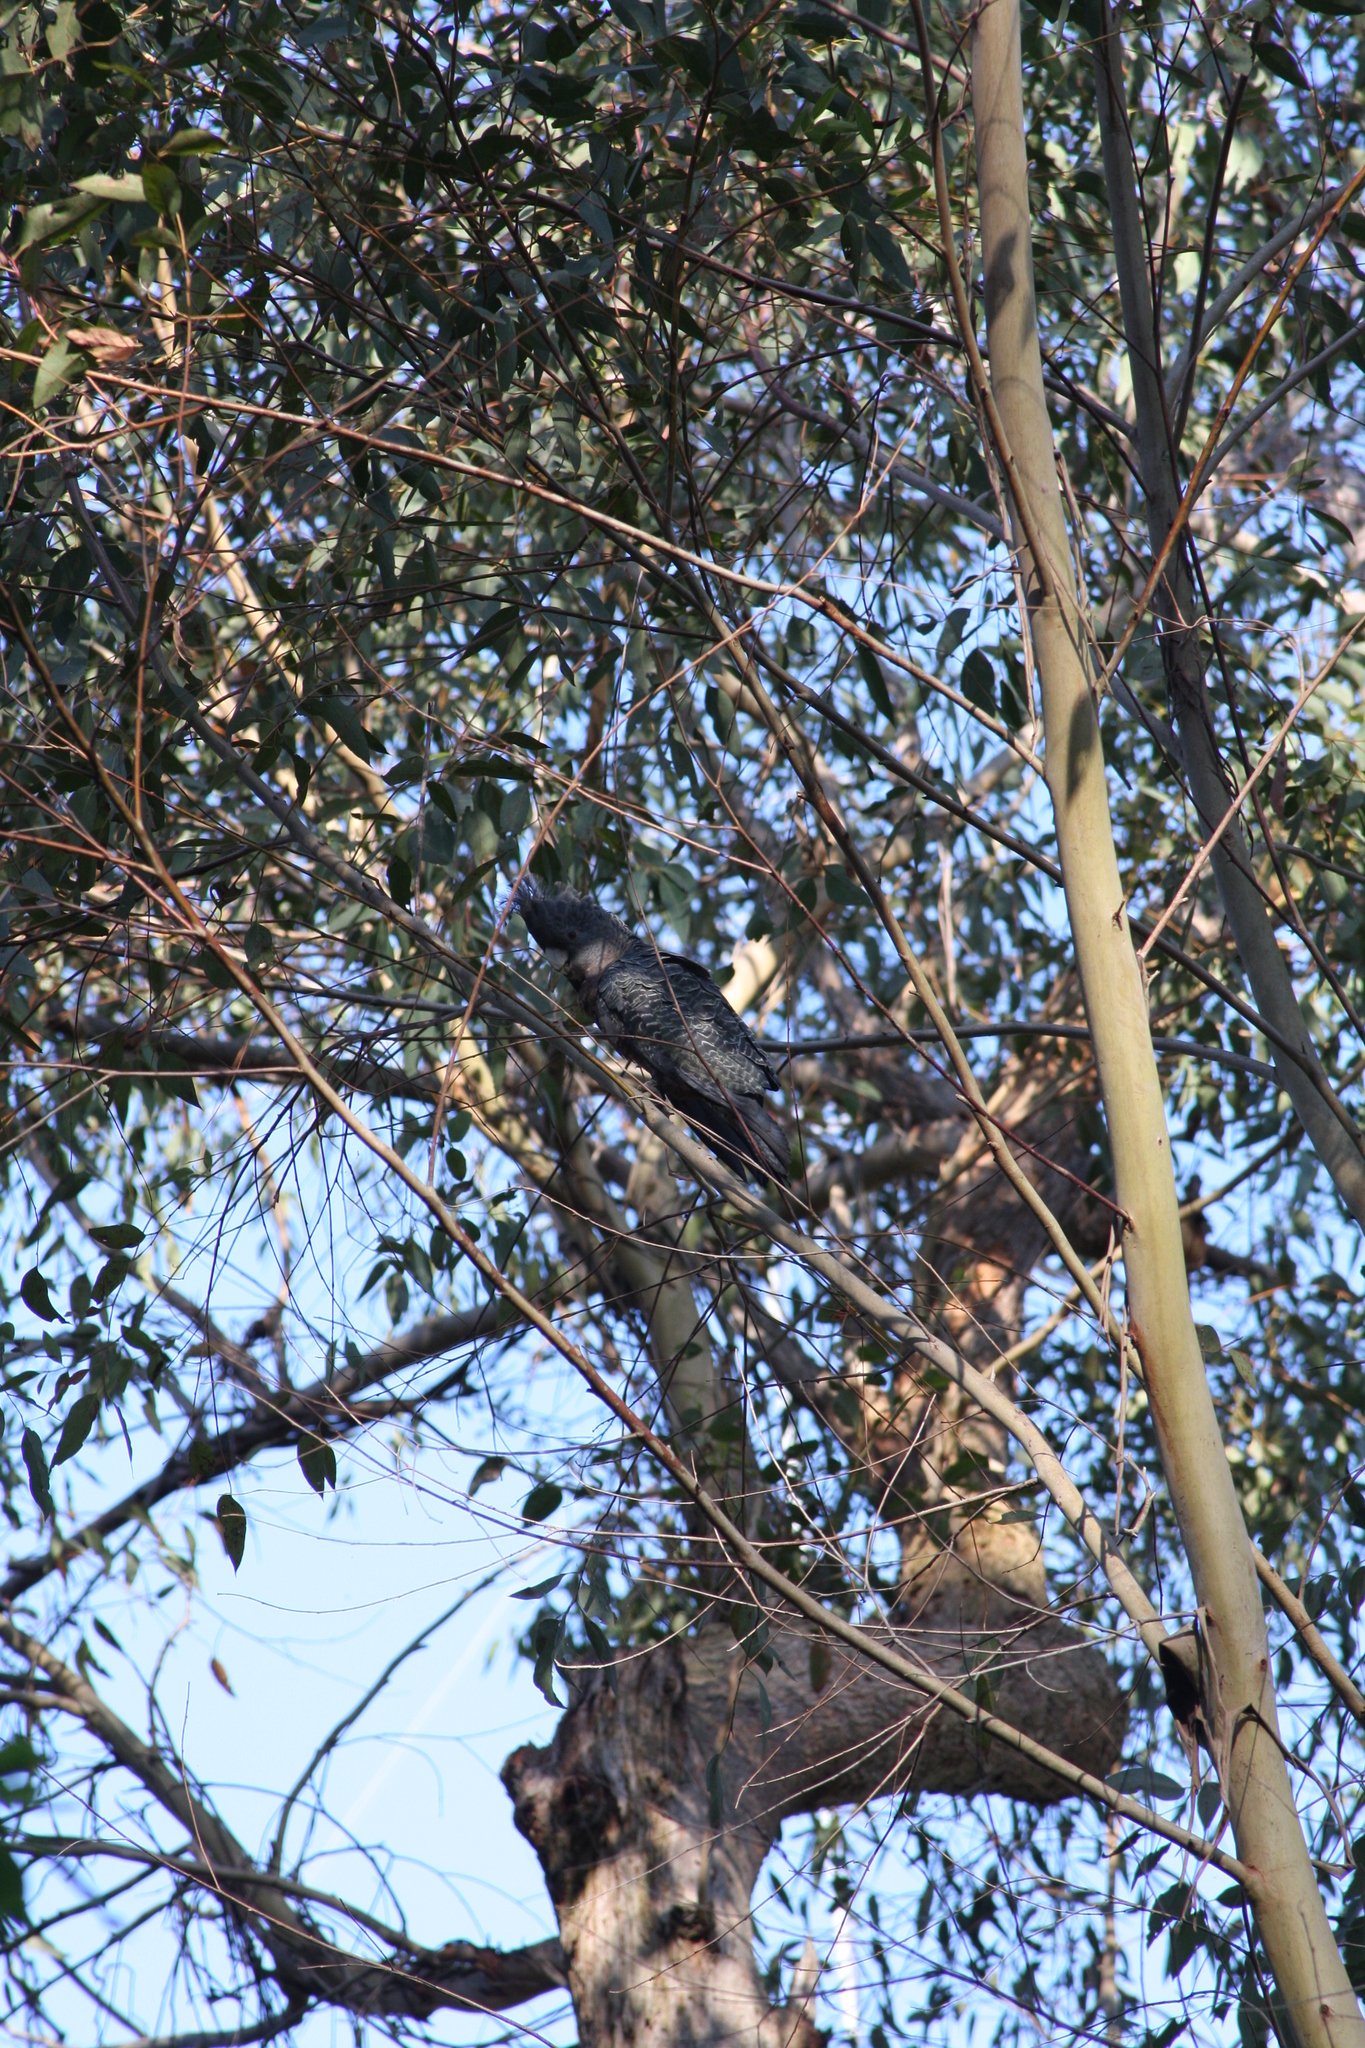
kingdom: Animalia
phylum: Chordata
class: Aves
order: Psittaciformes
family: Psittacidae
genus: Callocephalon
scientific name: Callocephalon fimbriatum
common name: Gang-gang cockatoo
